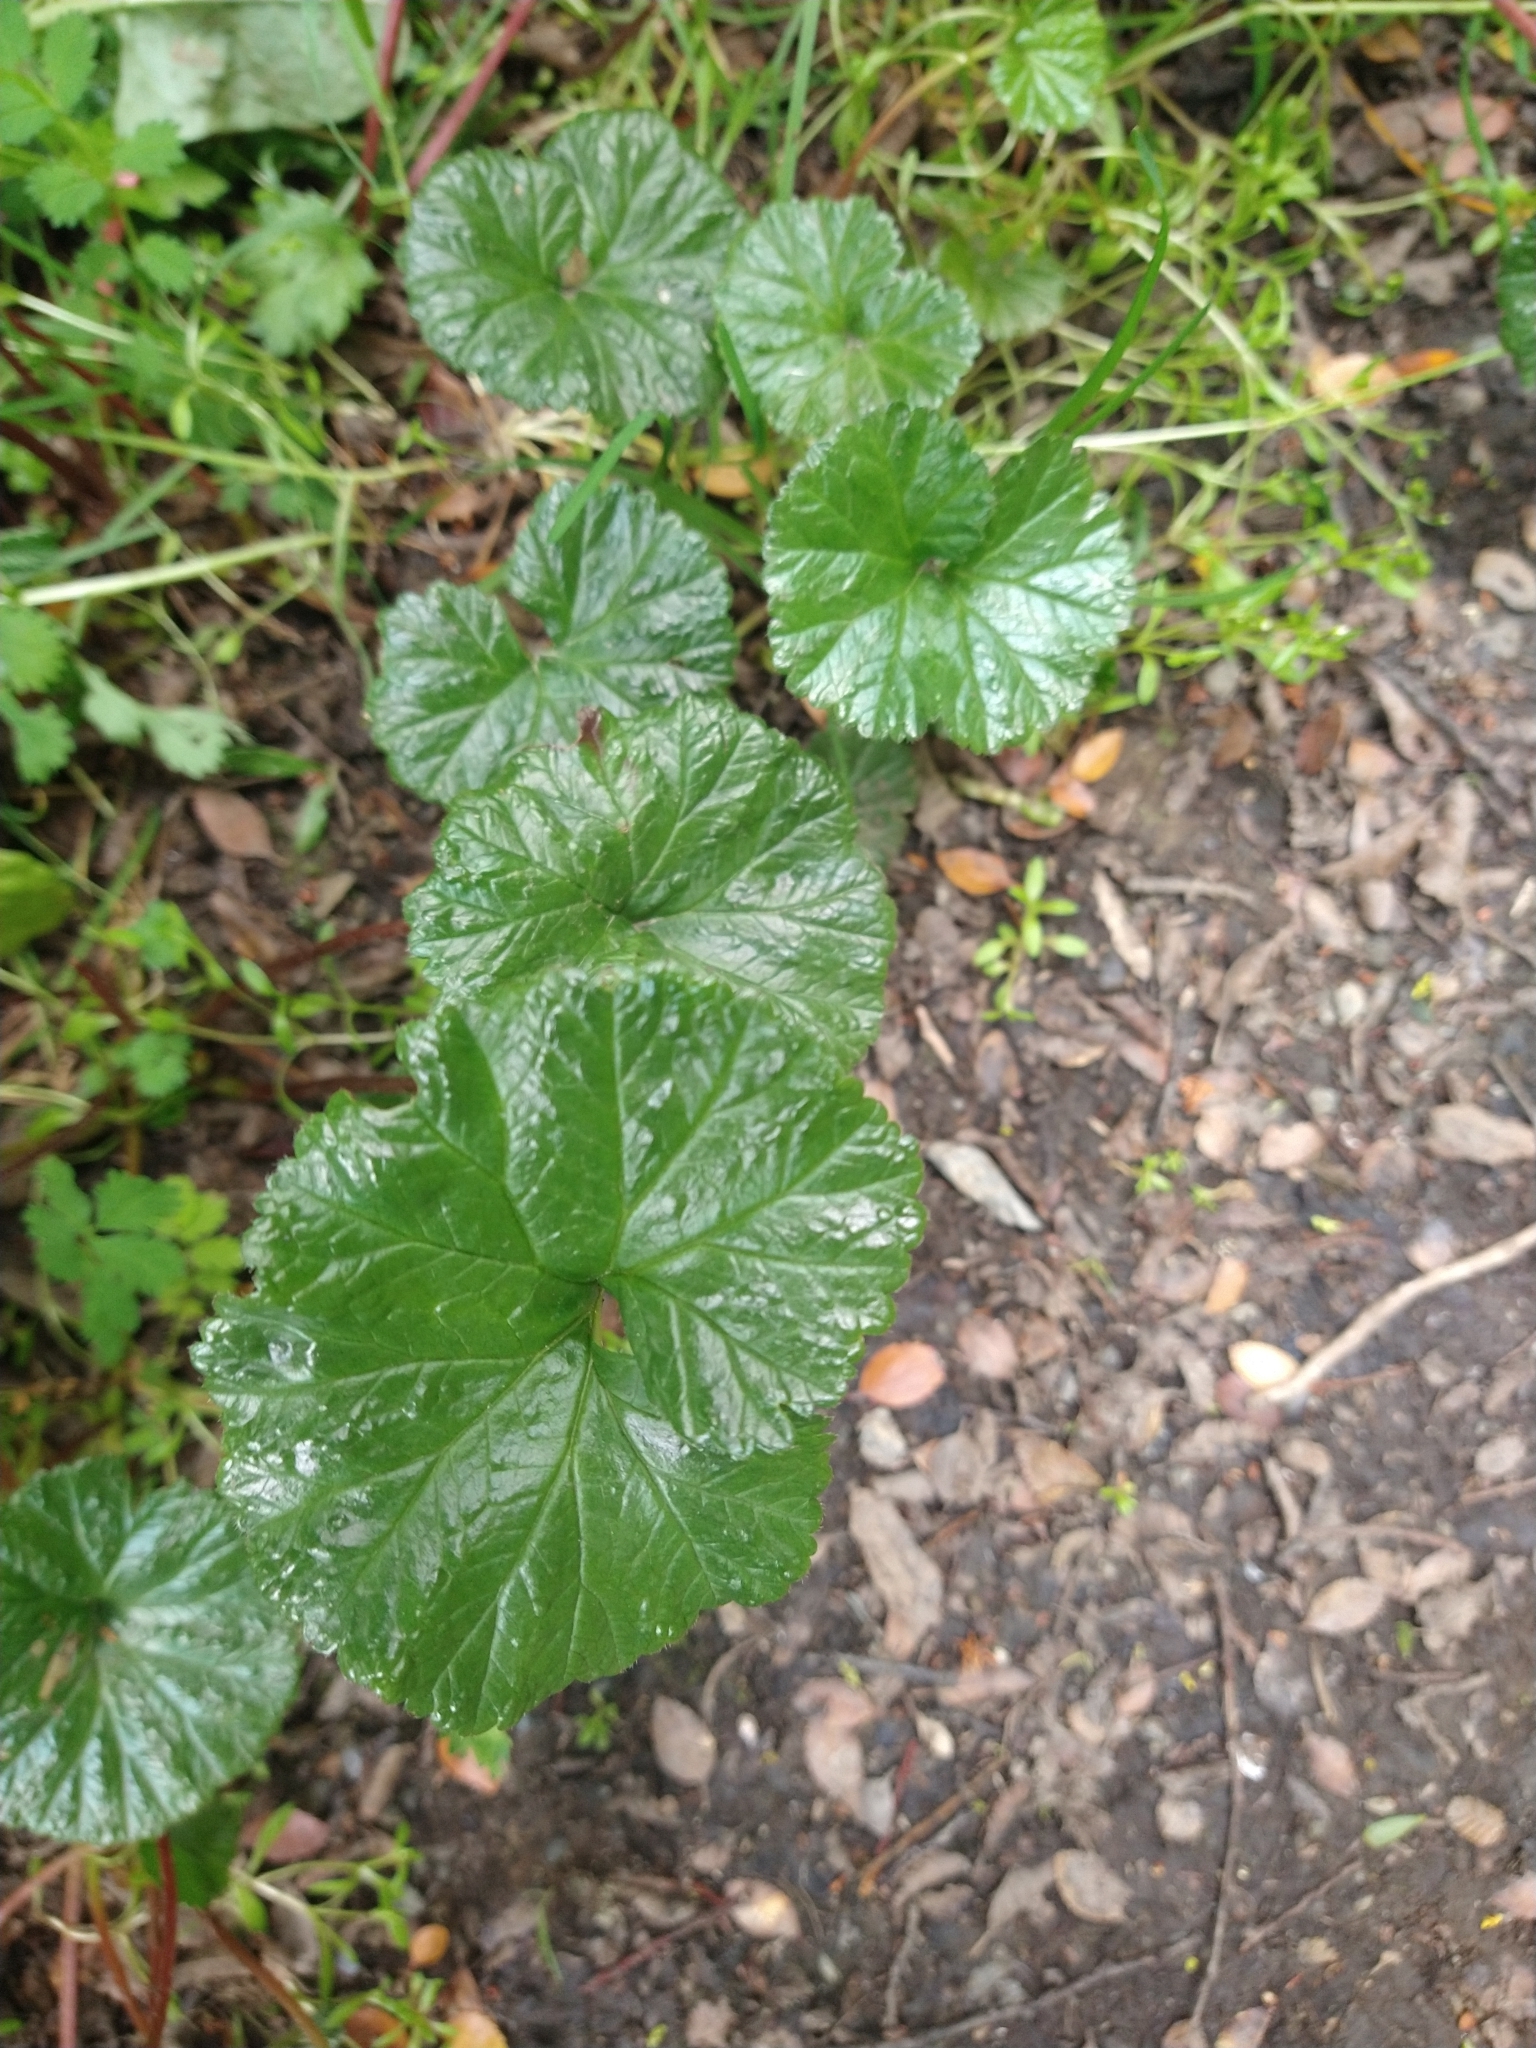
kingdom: Plantae
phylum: Tracheophyta
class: Magnoliopsida
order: Gunnerales
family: Gunneraceae
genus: Gunnera
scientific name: Gunnera magellanica
